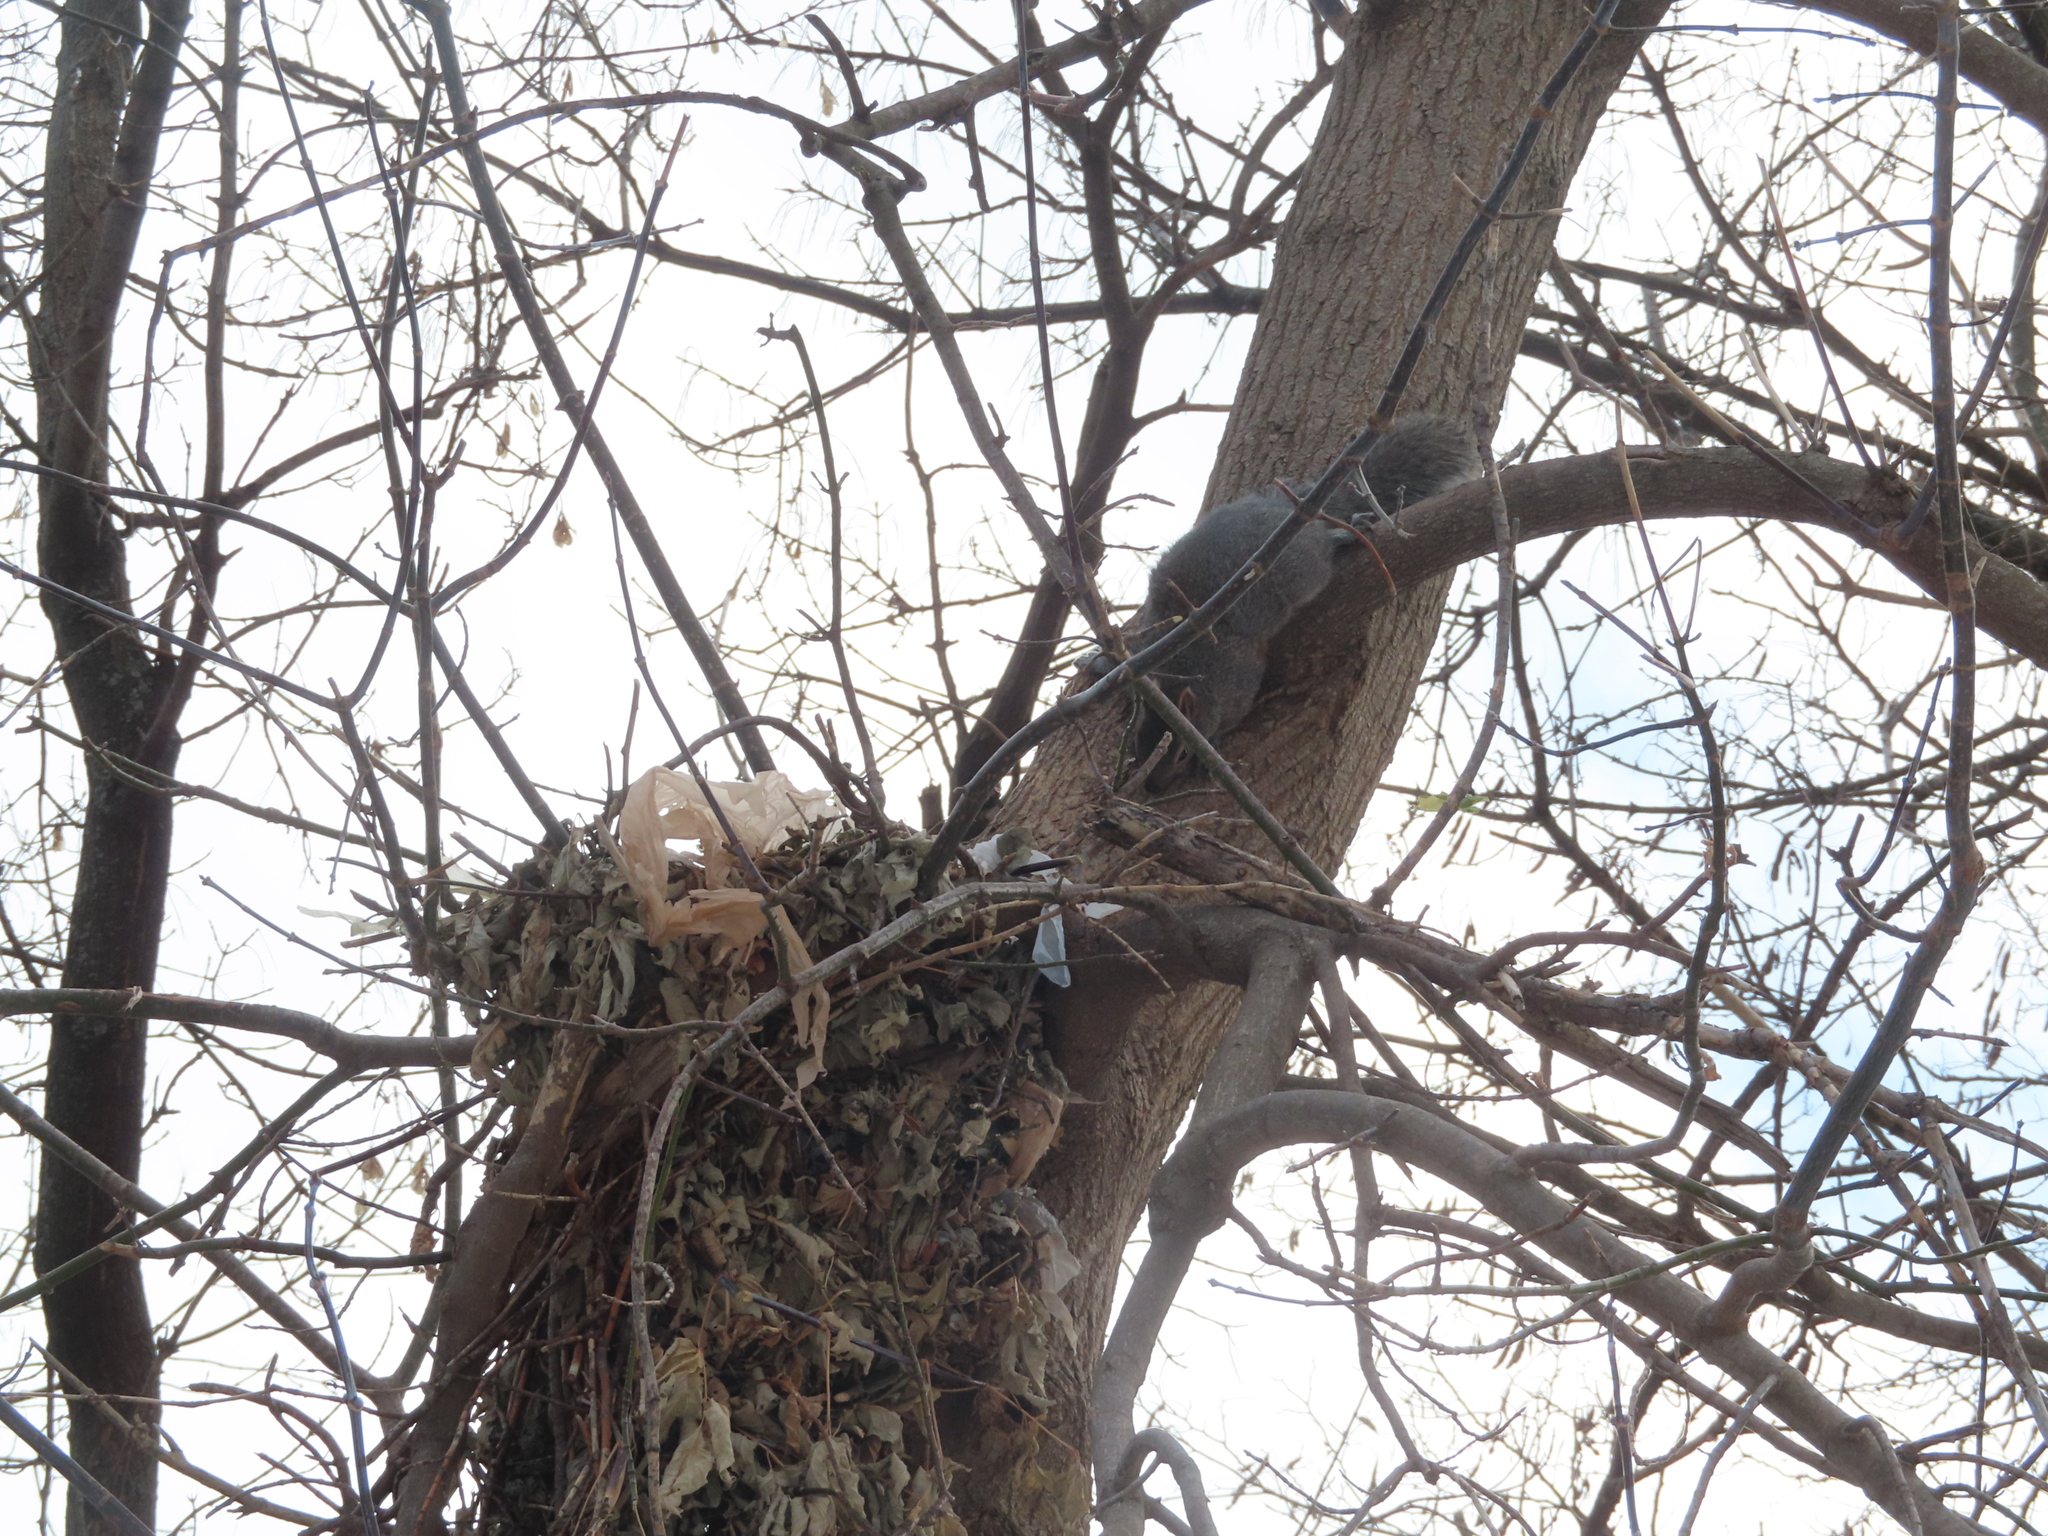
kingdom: Animalia
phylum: Chordata
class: Mammalia
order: Rodentia
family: Sciuridae
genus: Sciurus
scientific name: Sciurus carolinensis
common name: Eastern gray squirrel
